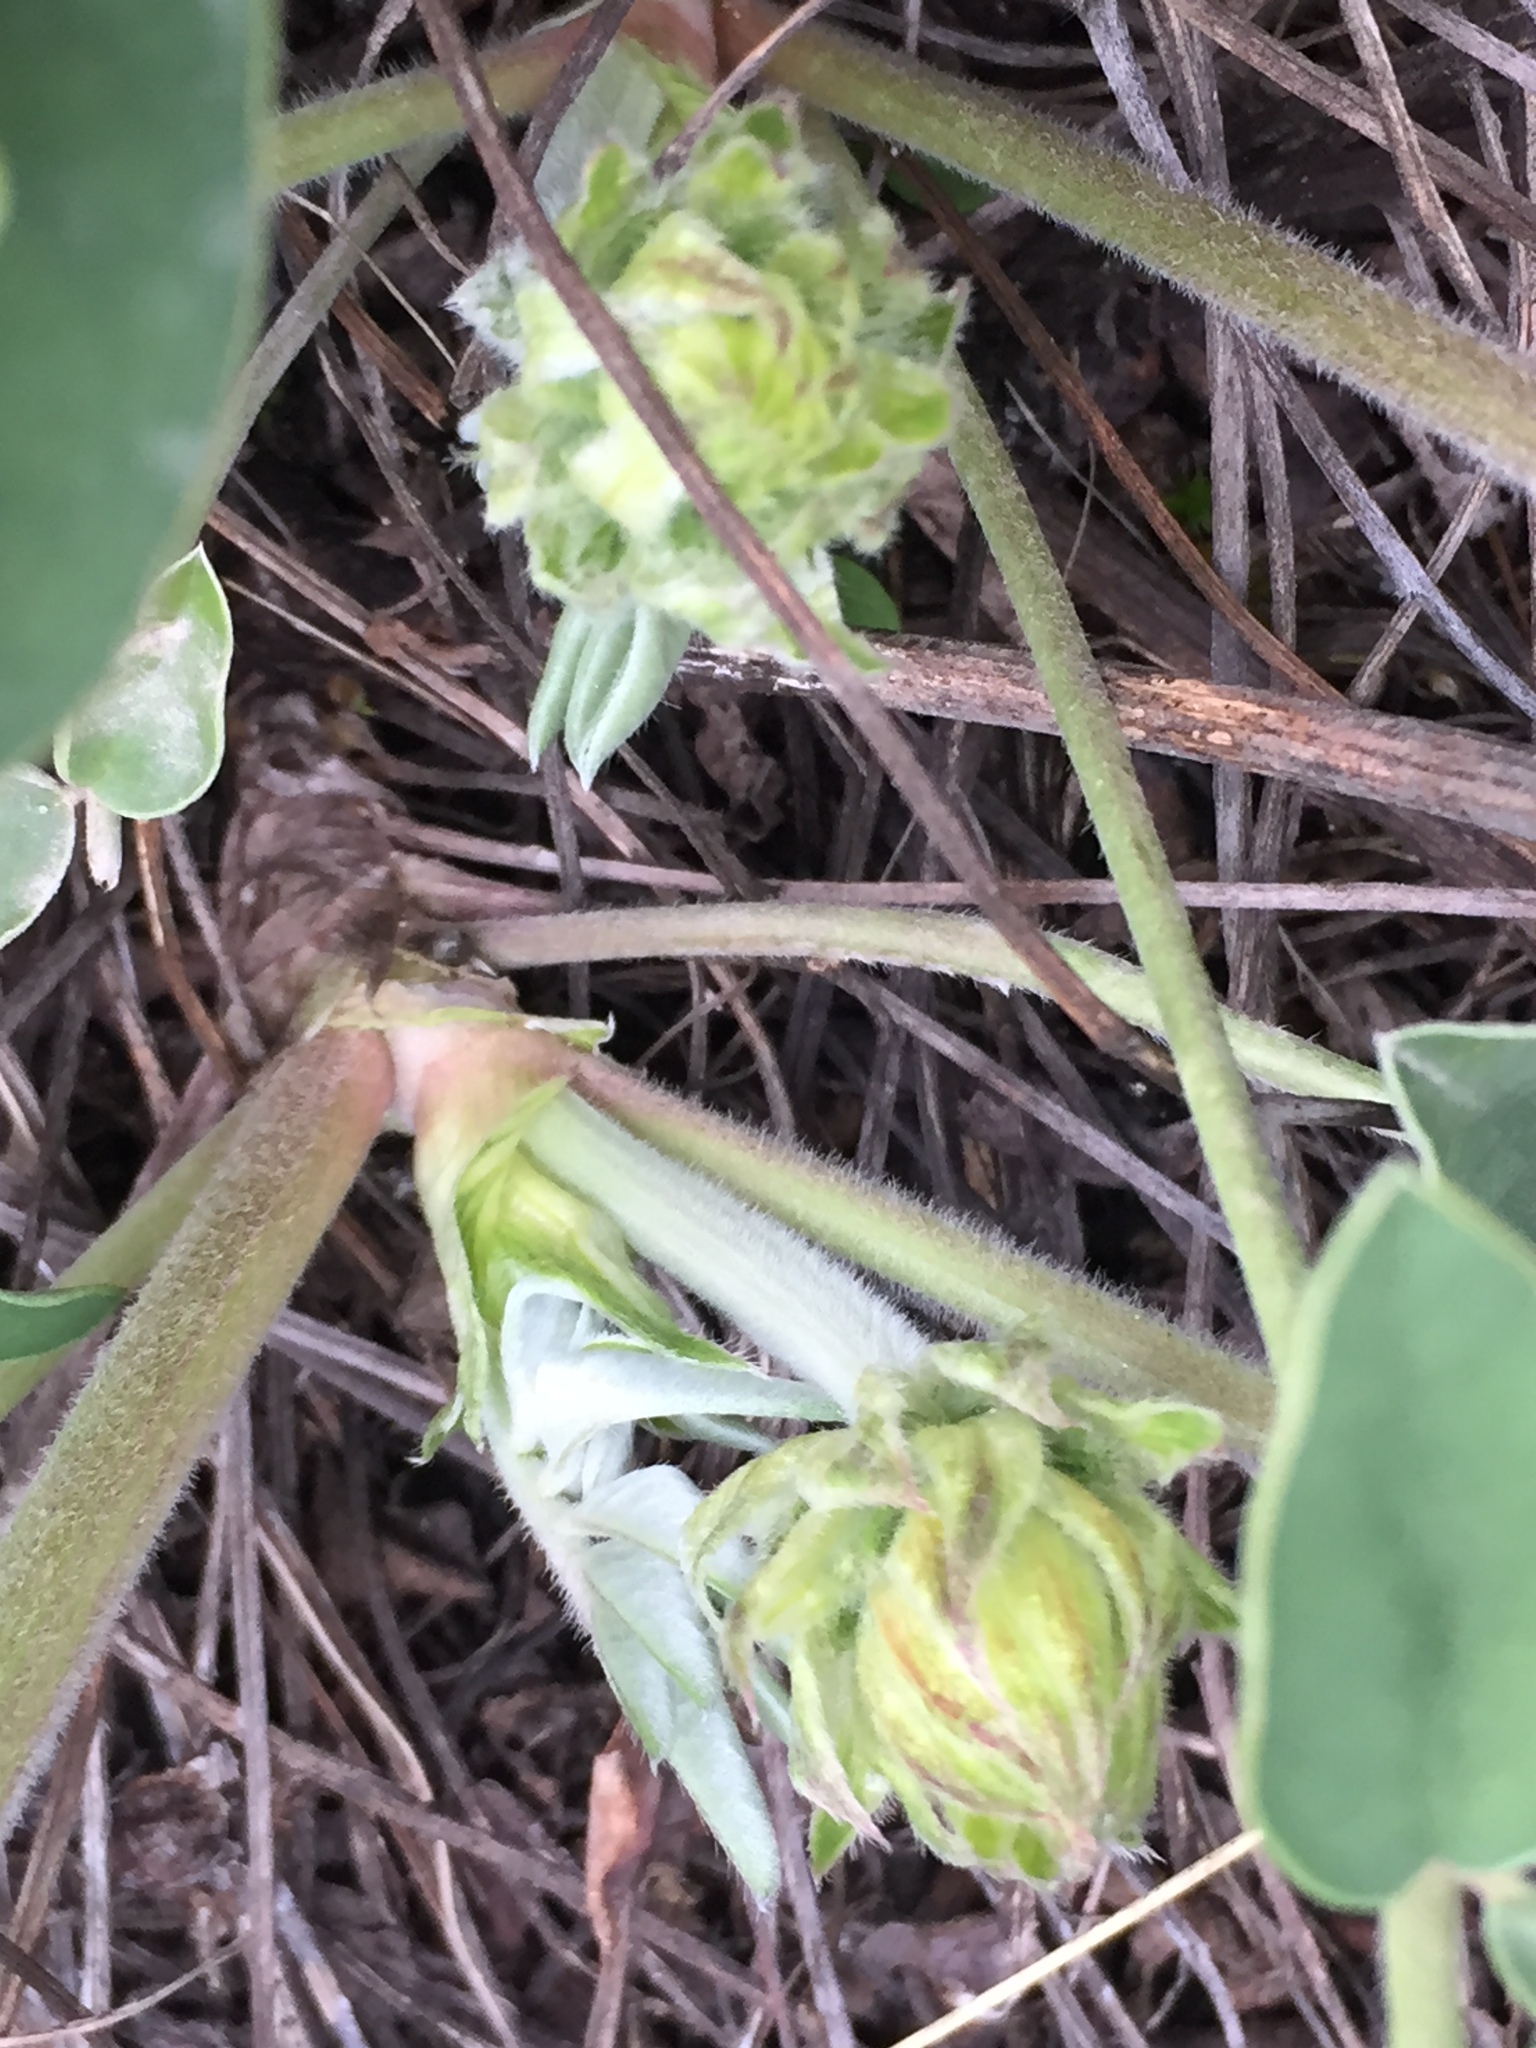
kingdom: Plantae
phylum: Tracheophyta
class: Magnoliopsida
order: Fabales
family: Fabaceae
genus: Hedysarum
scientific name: Hedysarum grandiflorum
